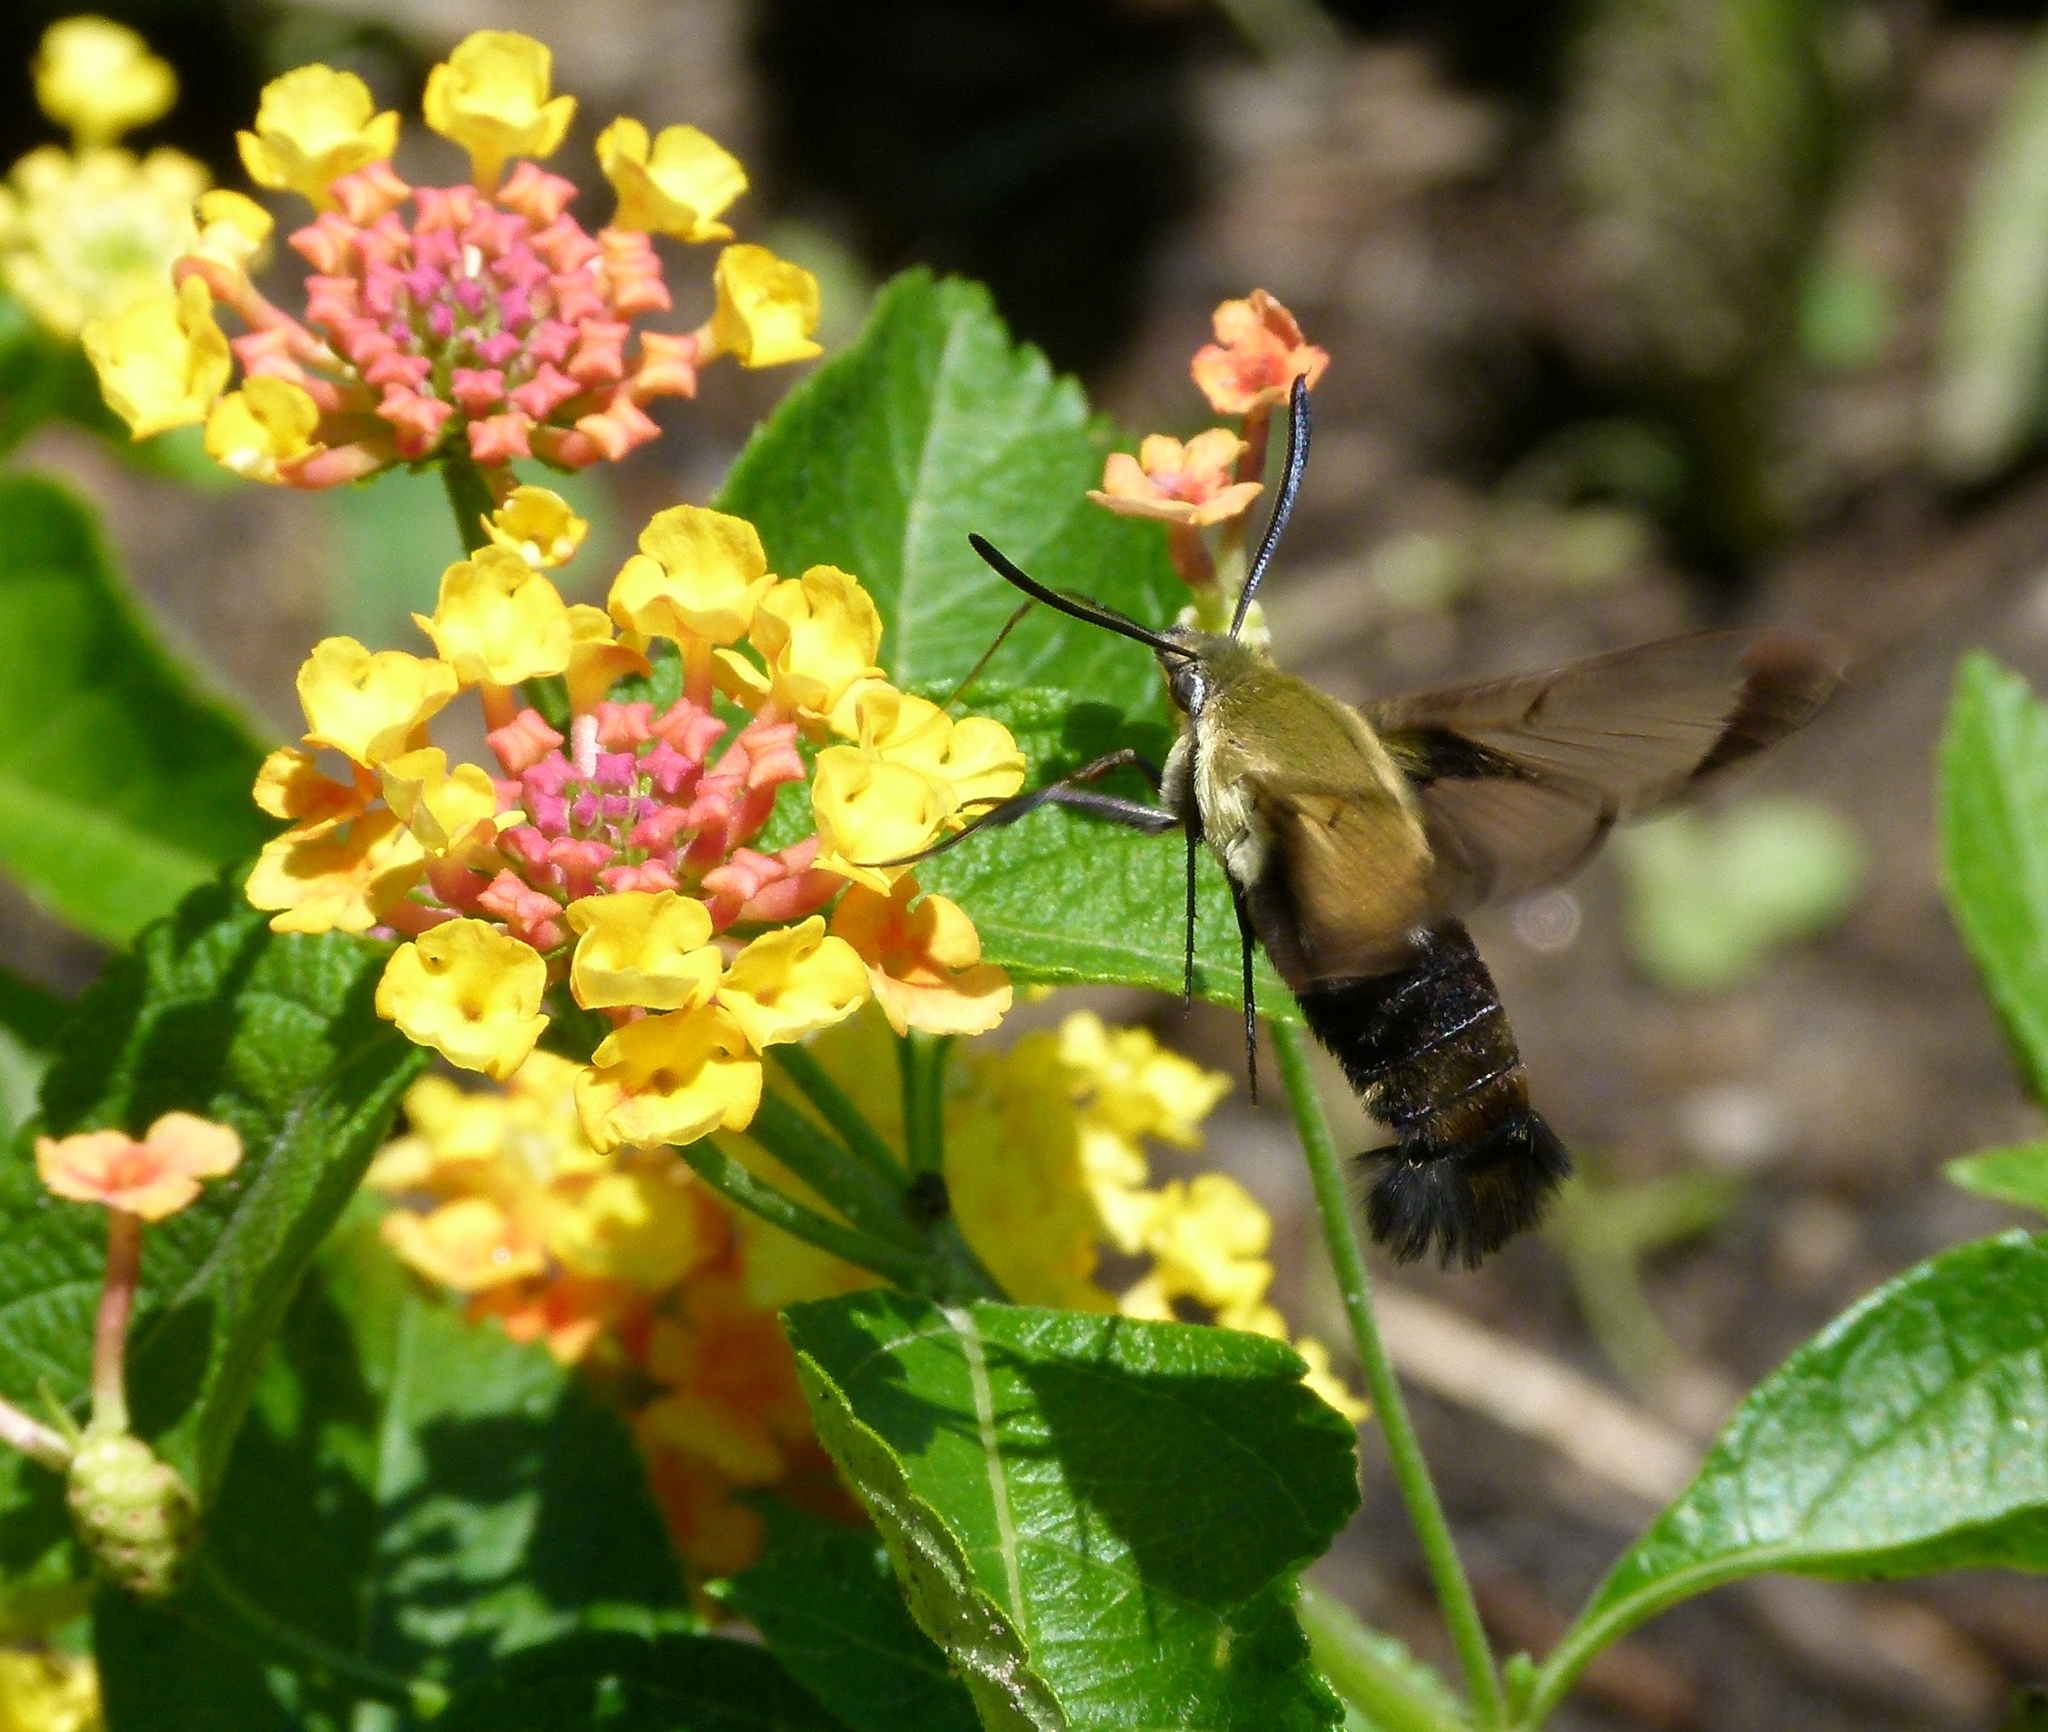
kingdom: Animalia
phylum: Arthropoda
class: Insecta
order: Lepidoptera
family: Sphingidae
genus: Hemaris
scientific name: Hemaris diffinis
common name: Bumblebee moth
